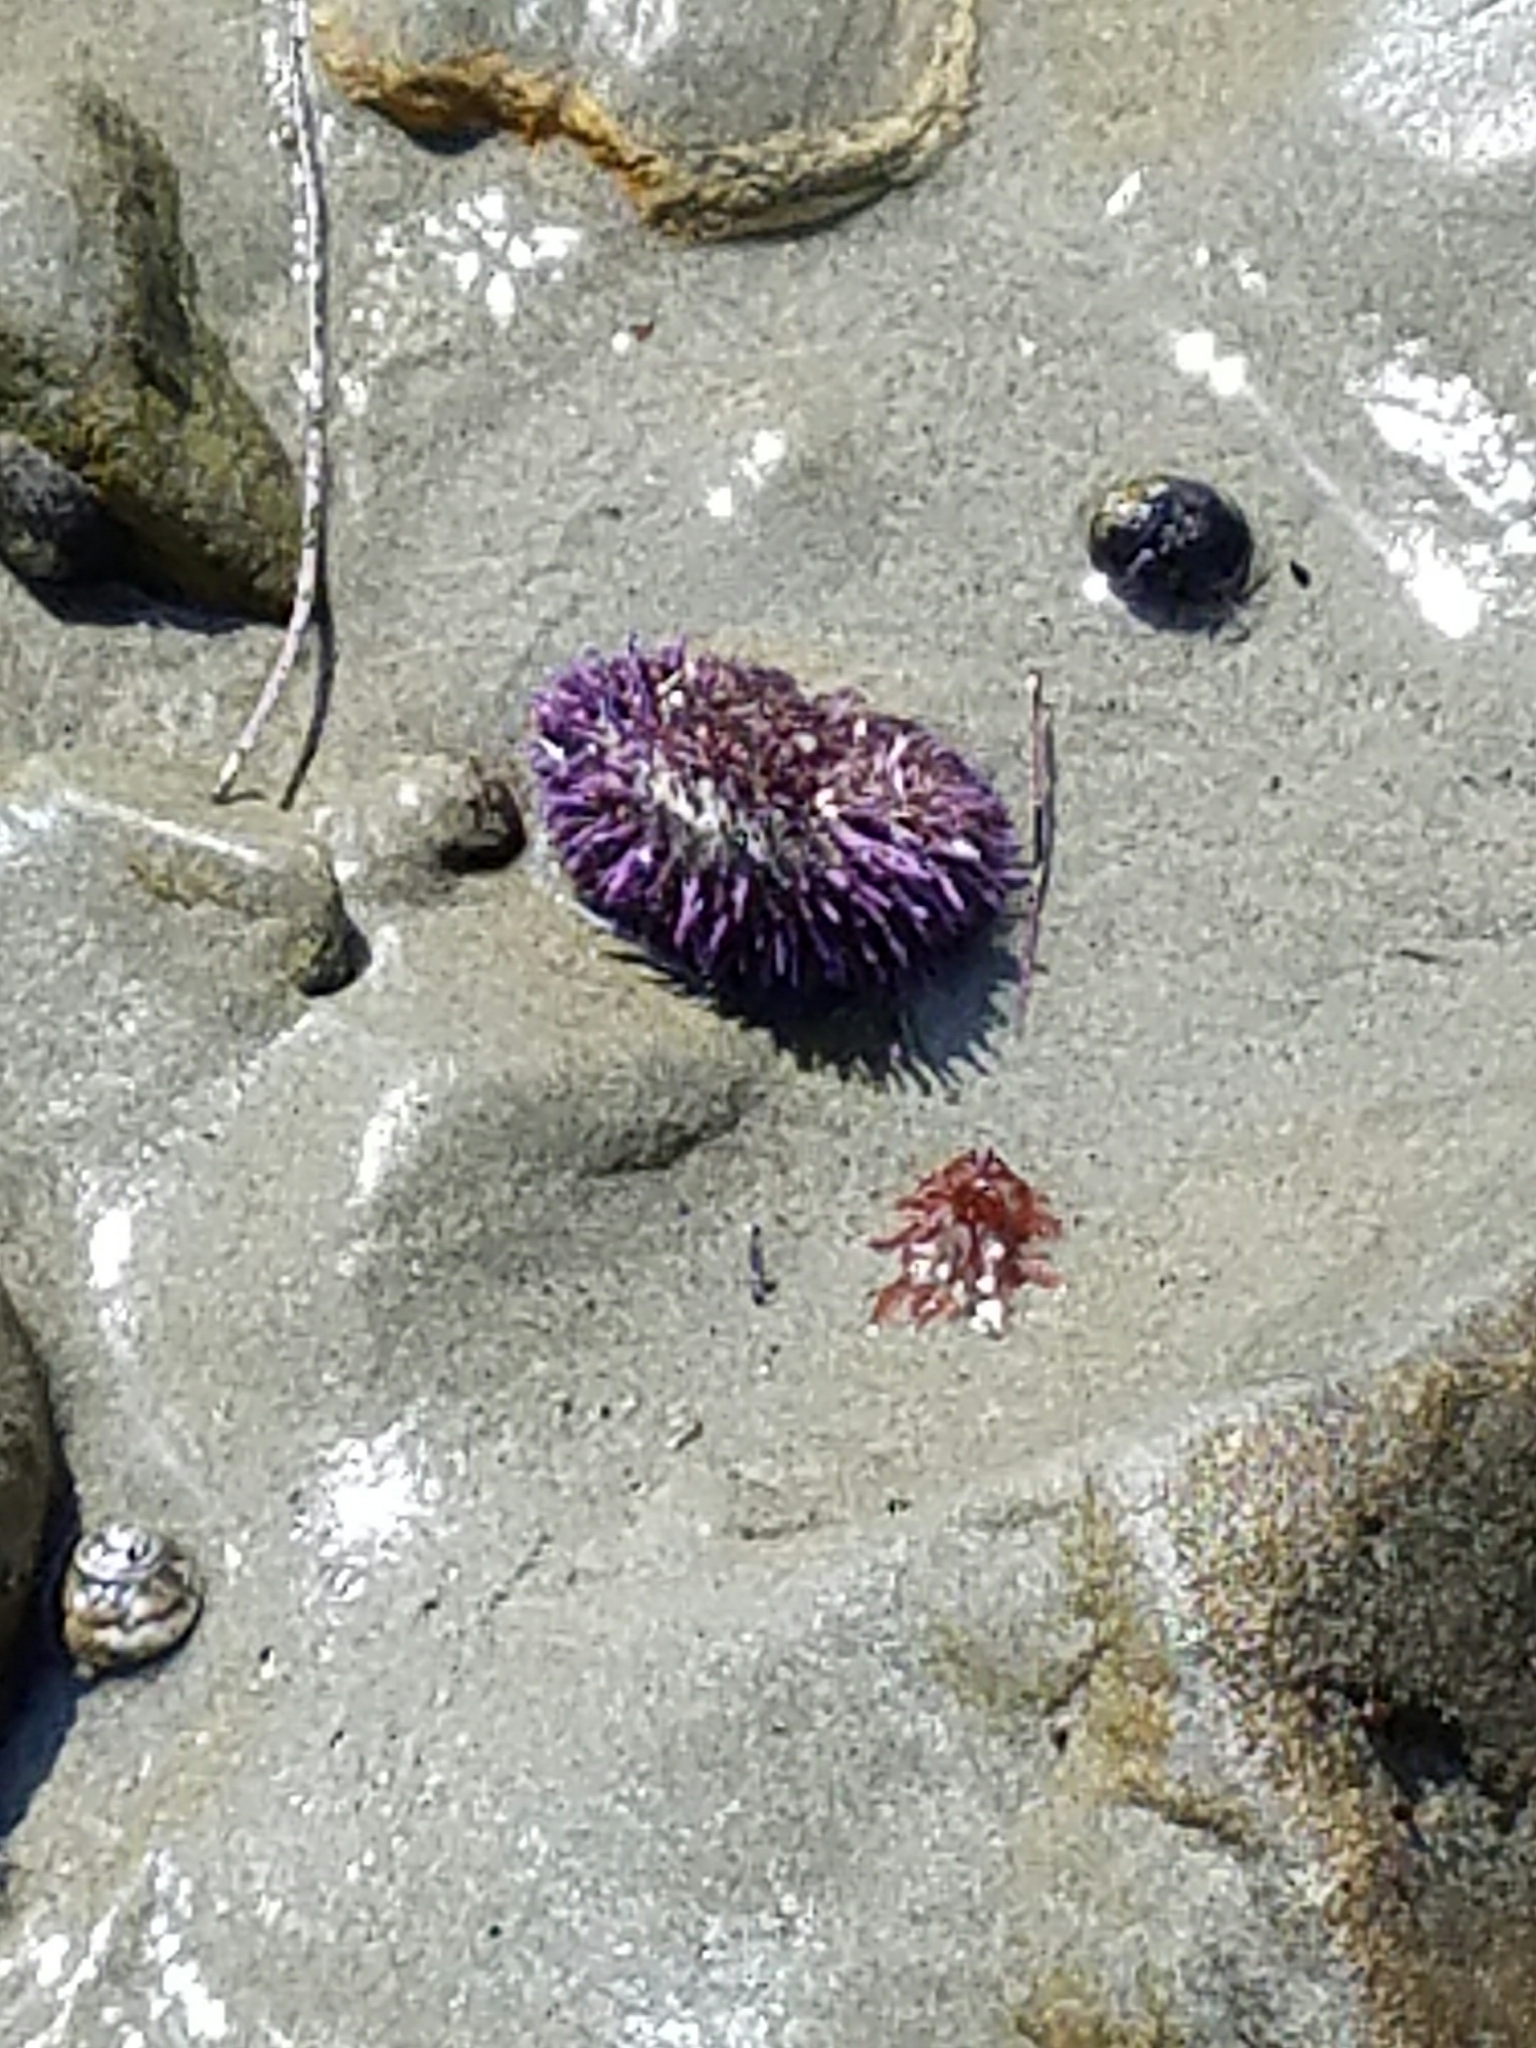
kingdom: Animalia
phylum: Echinodermata
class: Echinoidea
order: Camarodonta
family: Strongylocentrotidae
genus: Strongylocentrotus
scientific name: Strongylocentrotus purpuratus
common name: Purple sea urchin
